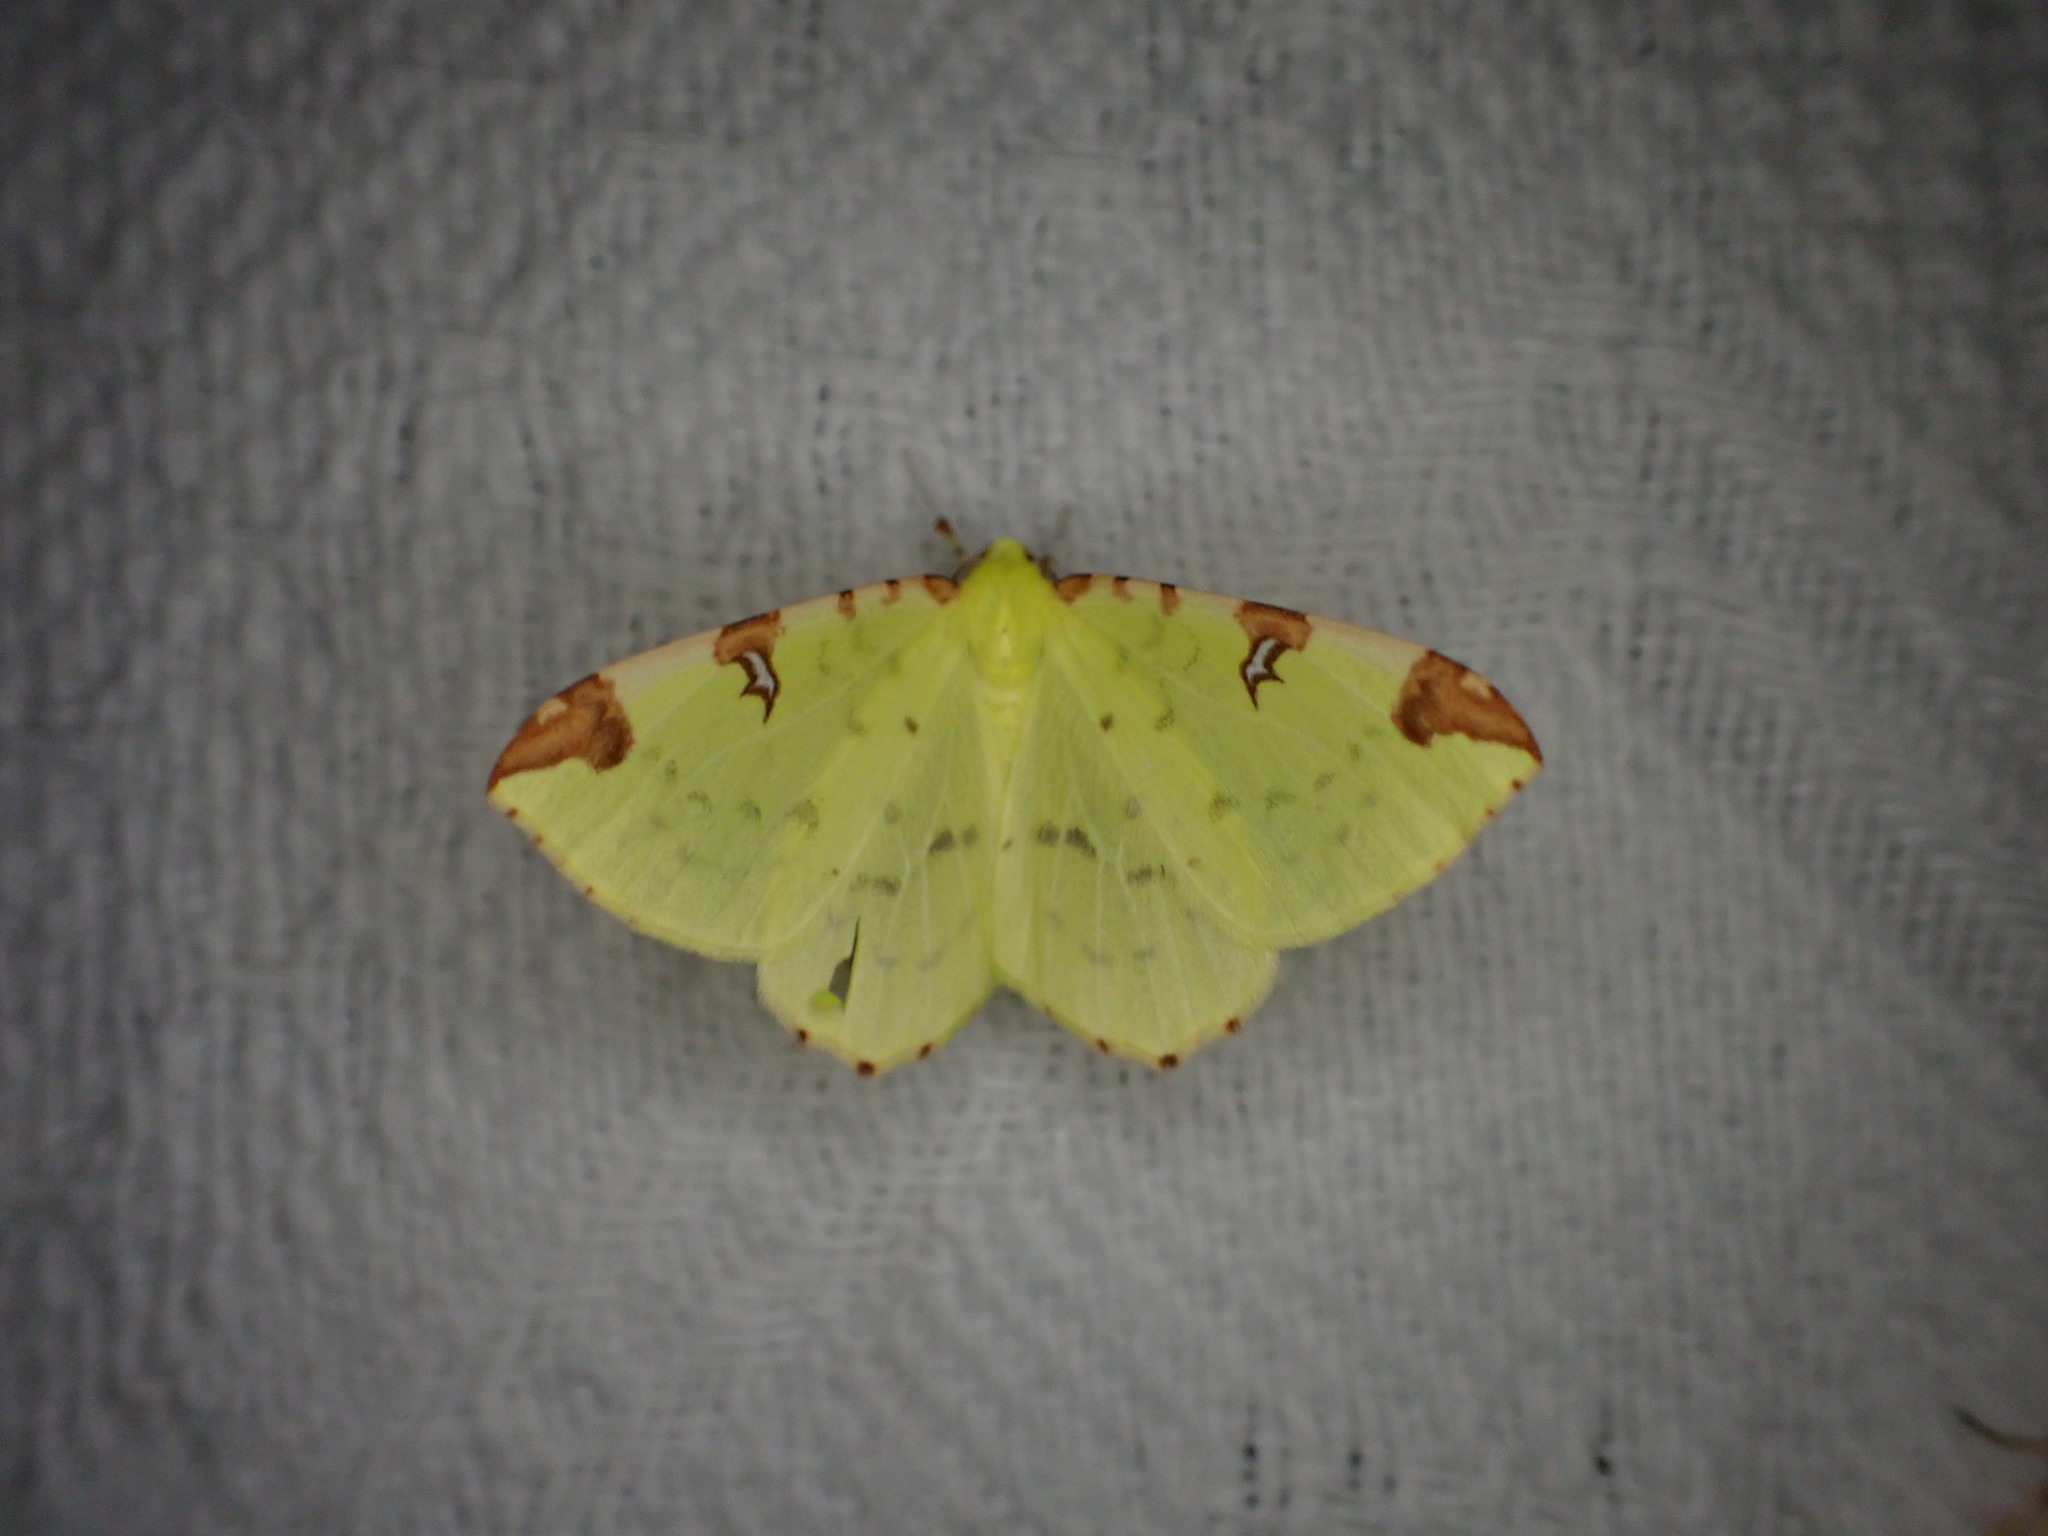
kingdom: Animalia
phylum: Arthropoda
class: Insecta
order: Lepidoptera
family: Geometridae
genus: Opisthograptis
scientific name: Opisthograptis luteolata
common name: Brimstone moth
